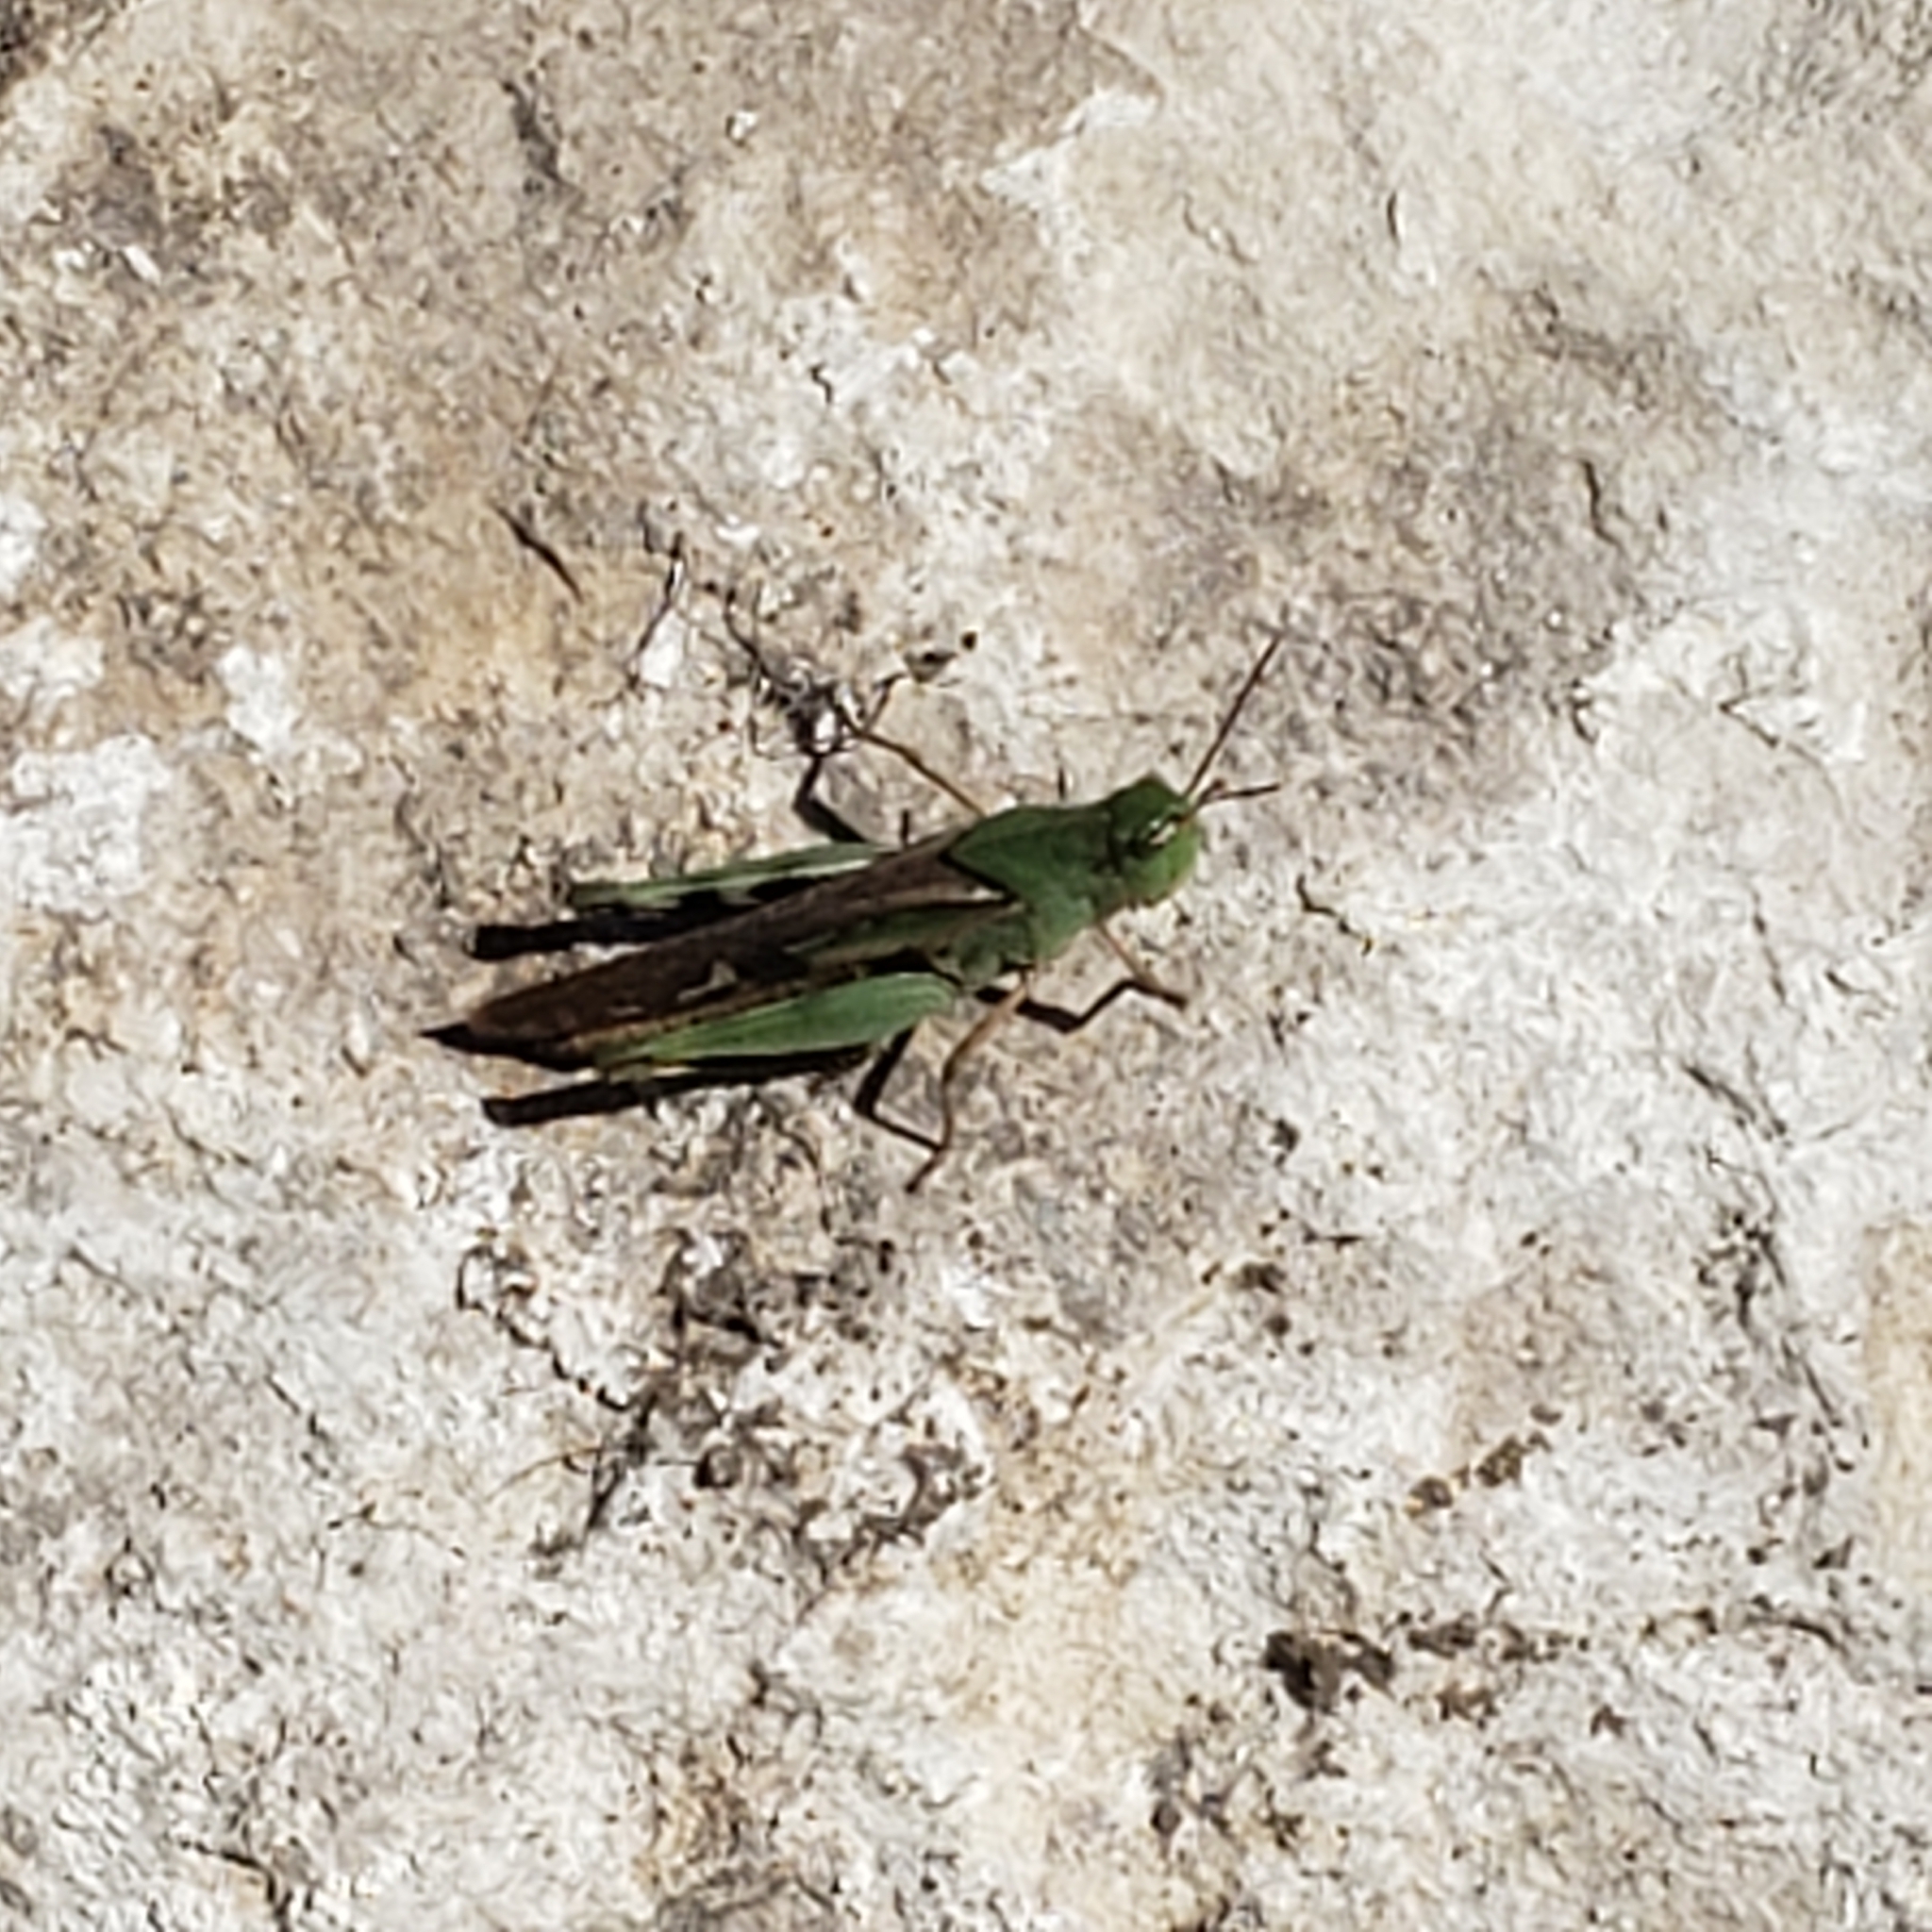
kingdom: Animalia
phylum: Arthropoda
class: Insecta
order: Orthoptera
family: Acrididae
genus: Chortophaga
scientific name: Chortophaga viridifasciata
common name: Green-striped grasshopper
